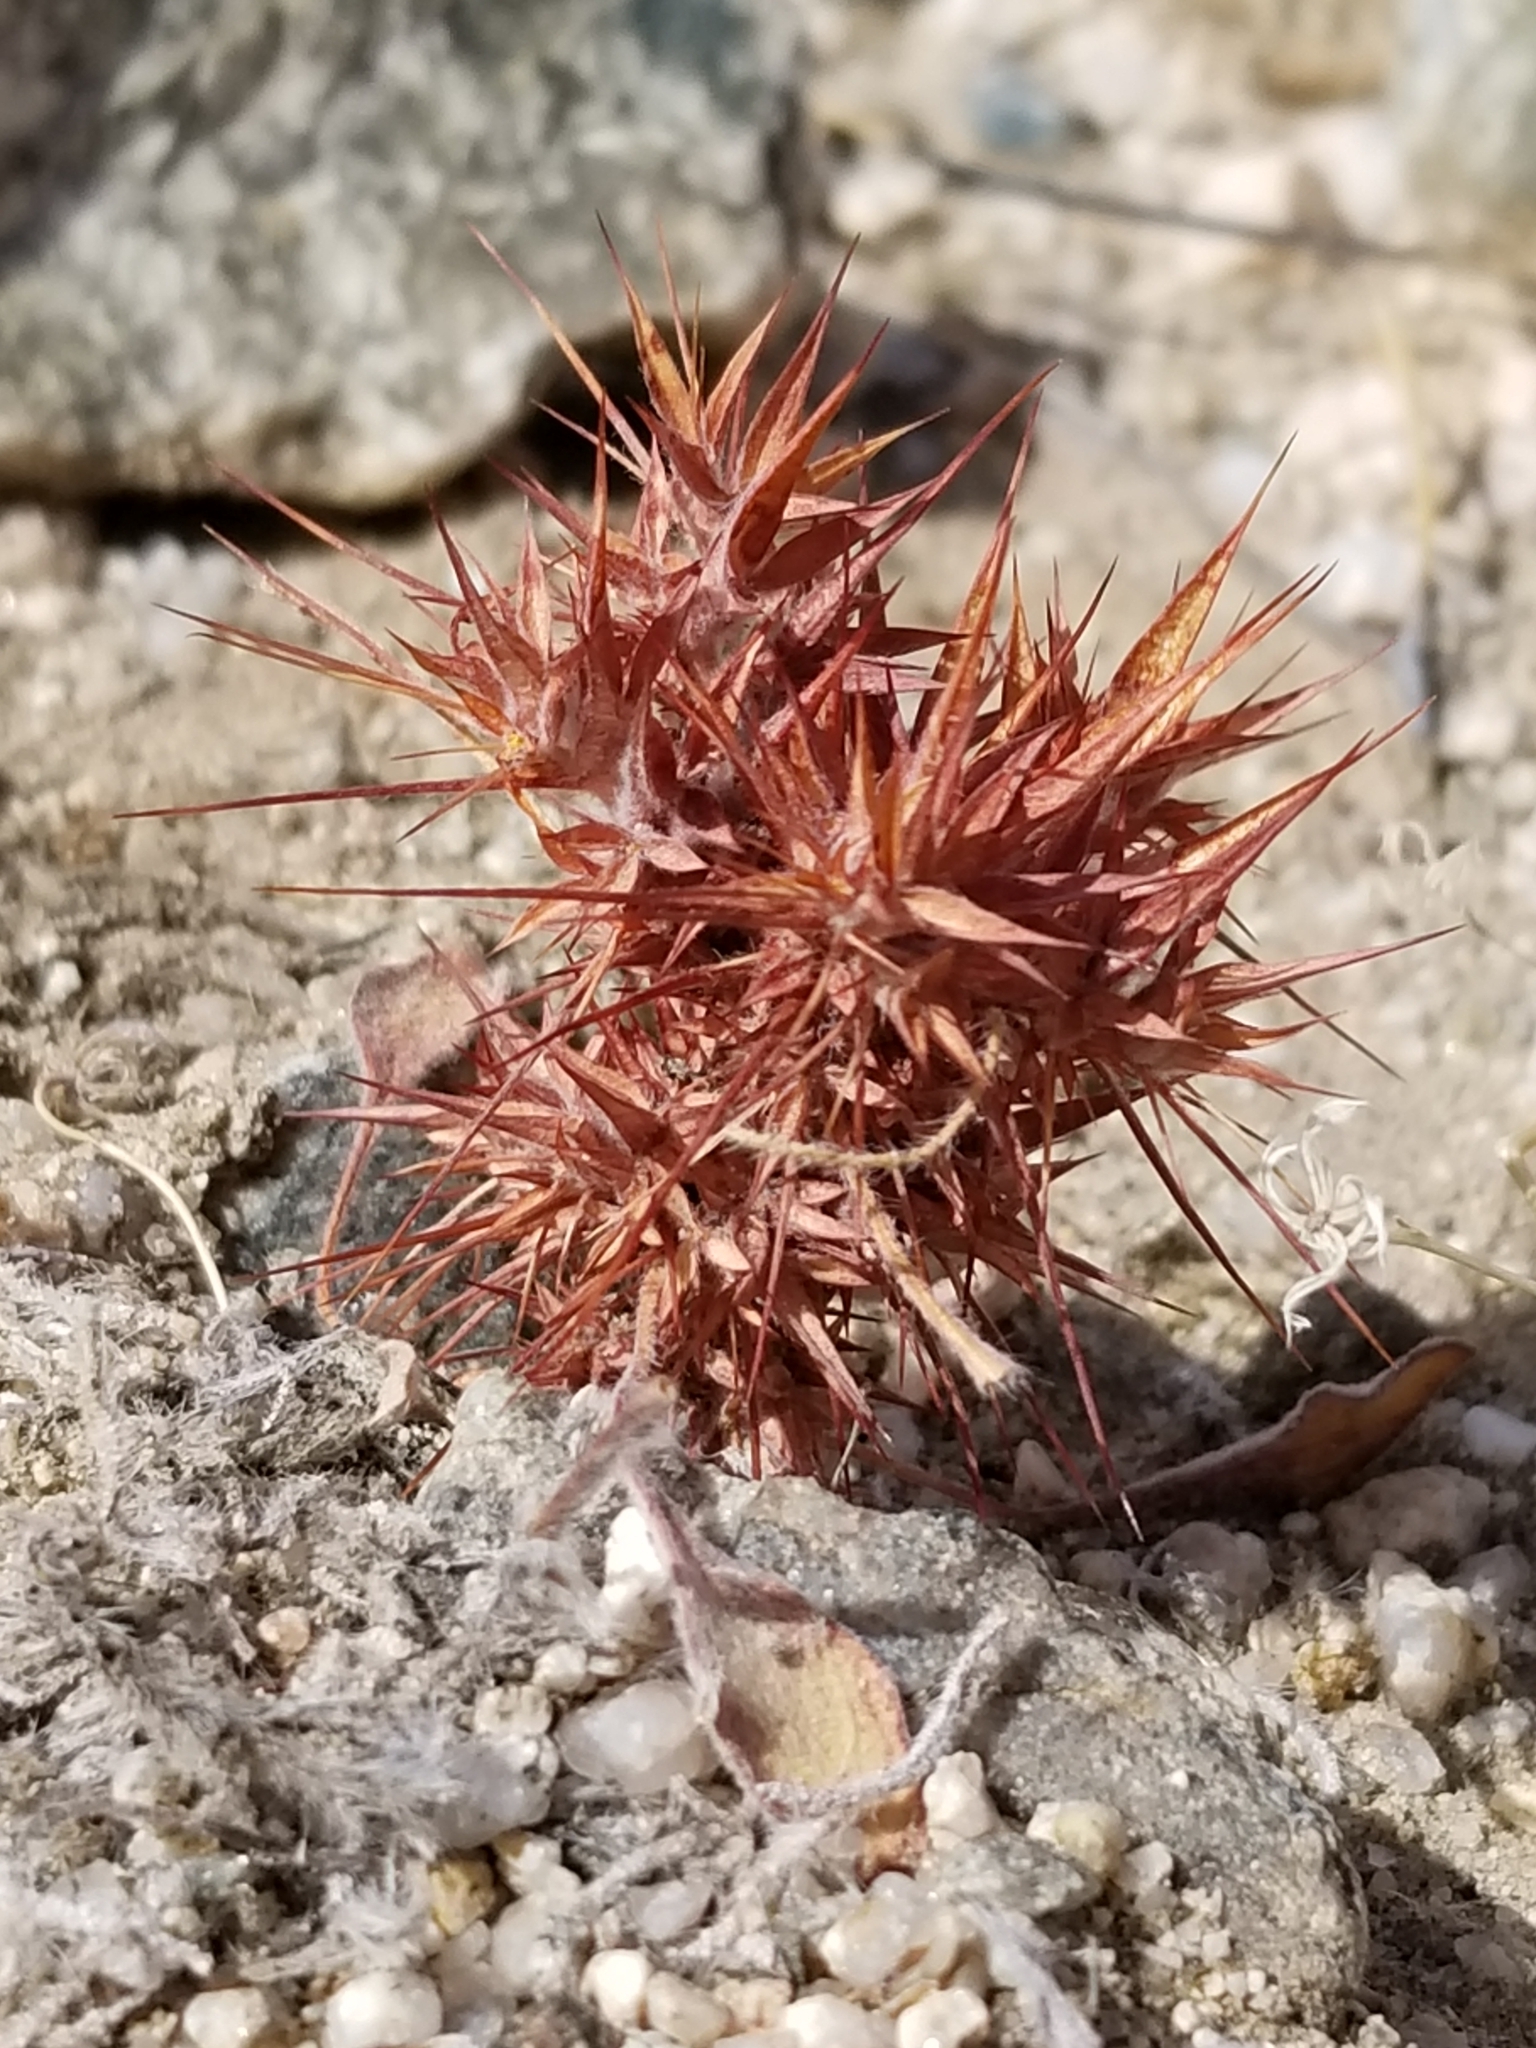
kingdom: Plantae
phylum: Tracheophyta
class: Magnoliopsida
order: Caryophyllales
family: Polygonaceae
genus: Chorizanthe
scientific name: Chorizanthe rigida
